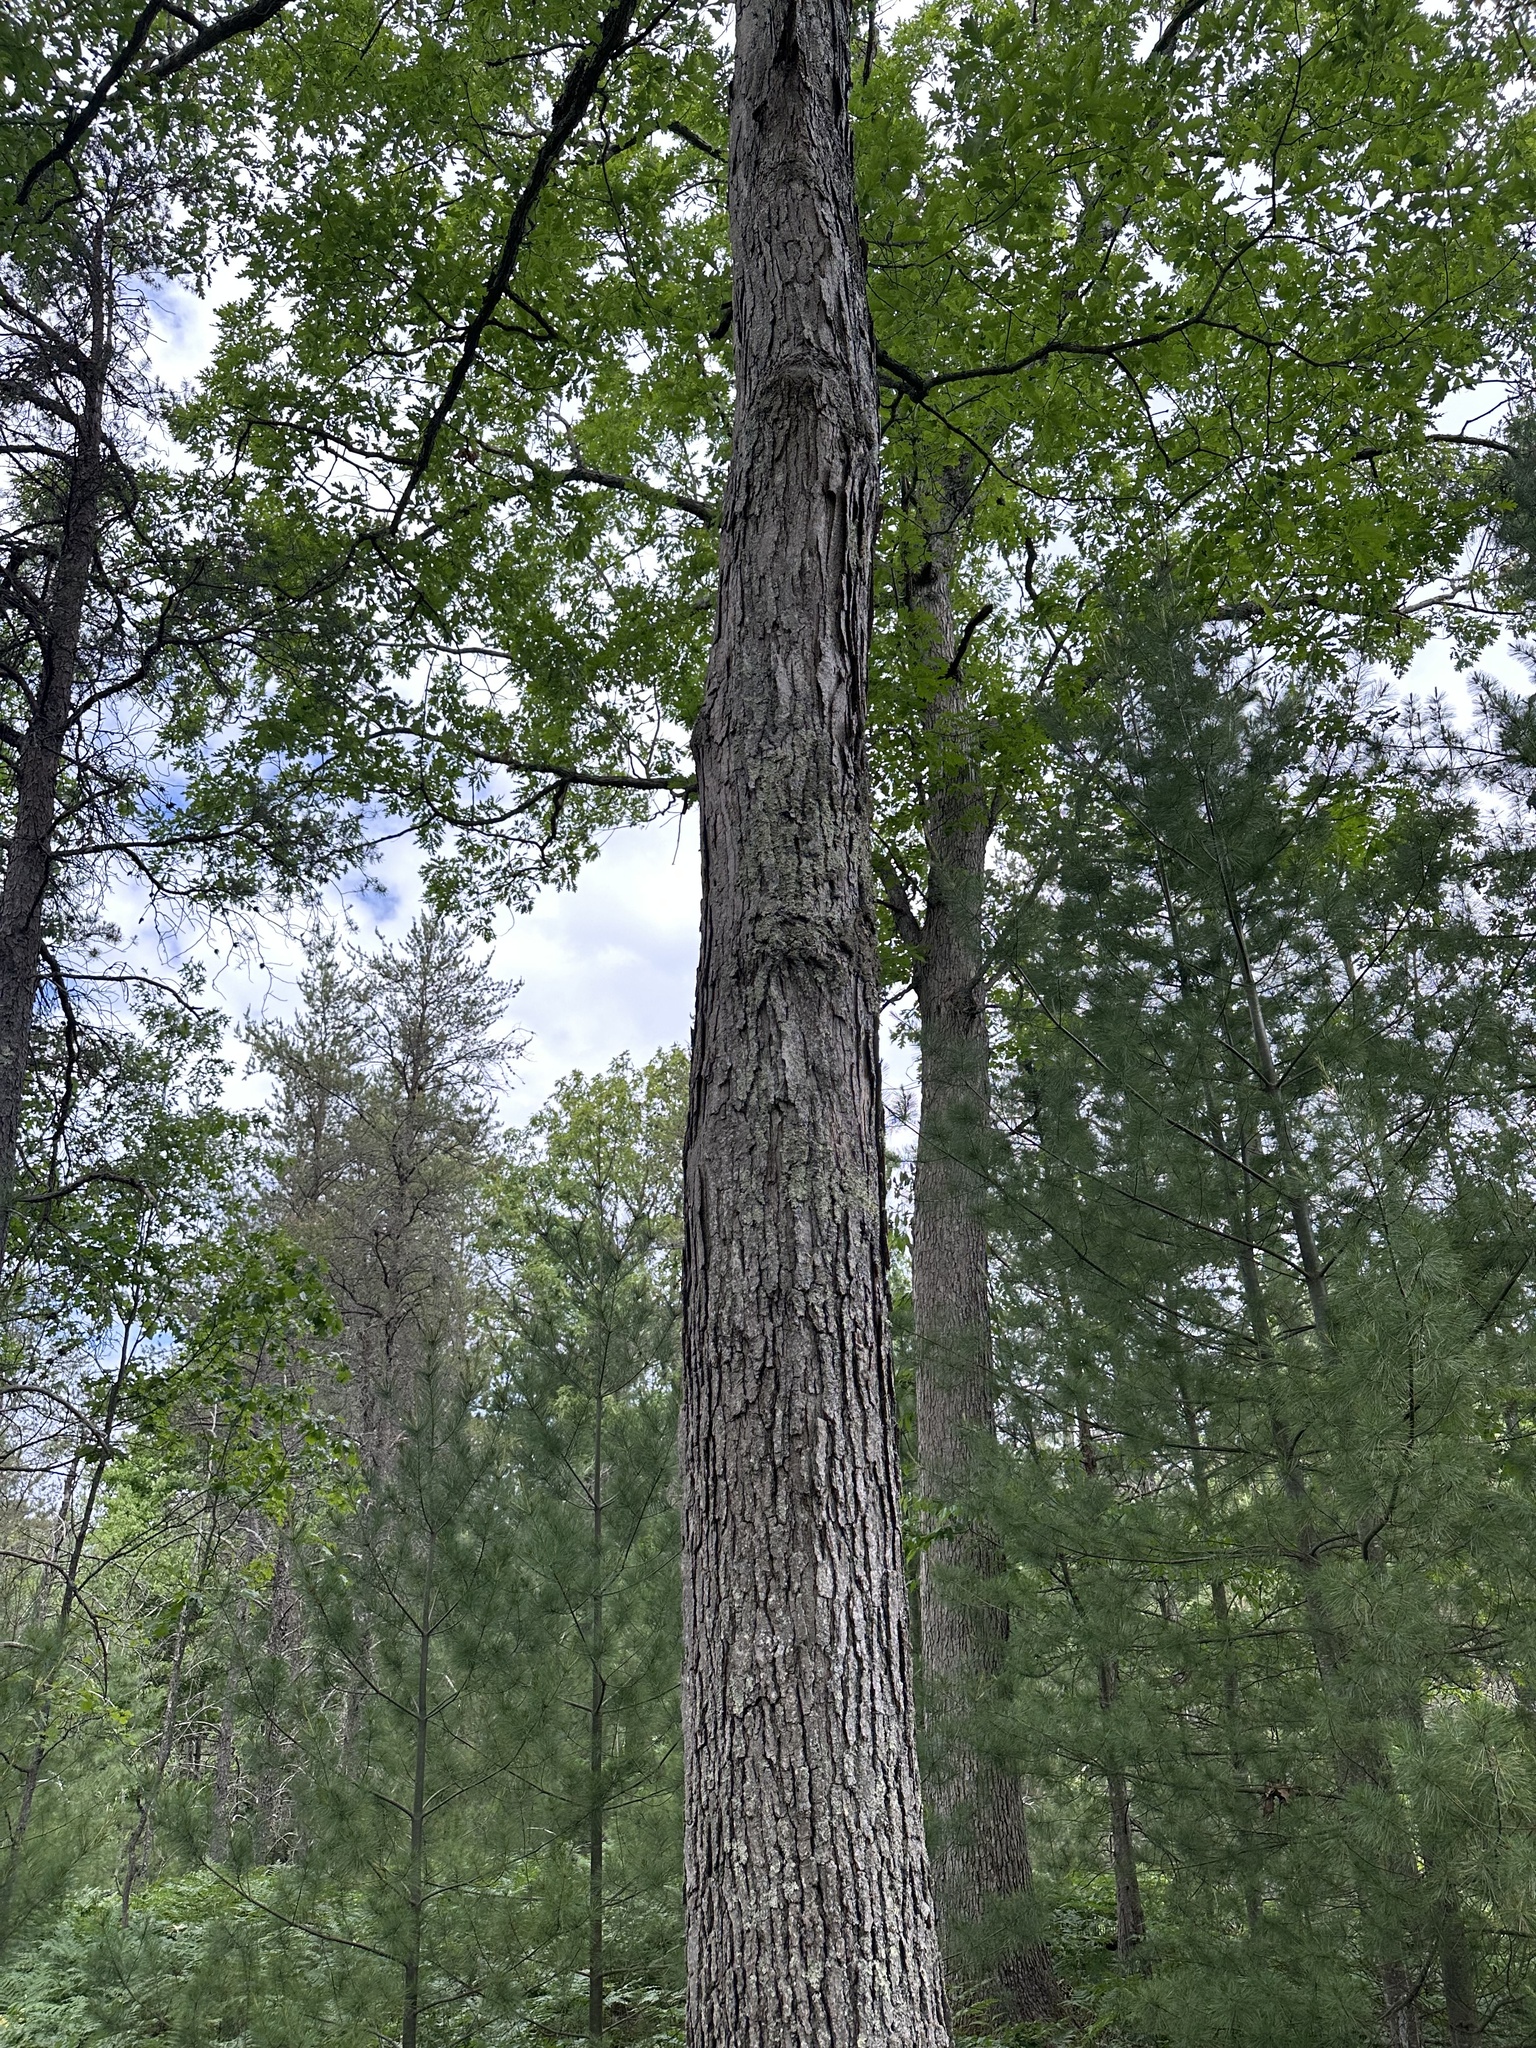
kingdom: Plantae
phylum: Tracheophyta
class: Magnoliopsida
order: Fagales
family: Fagaceae
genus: Quercus
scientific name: Quercus alba
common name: White oak
